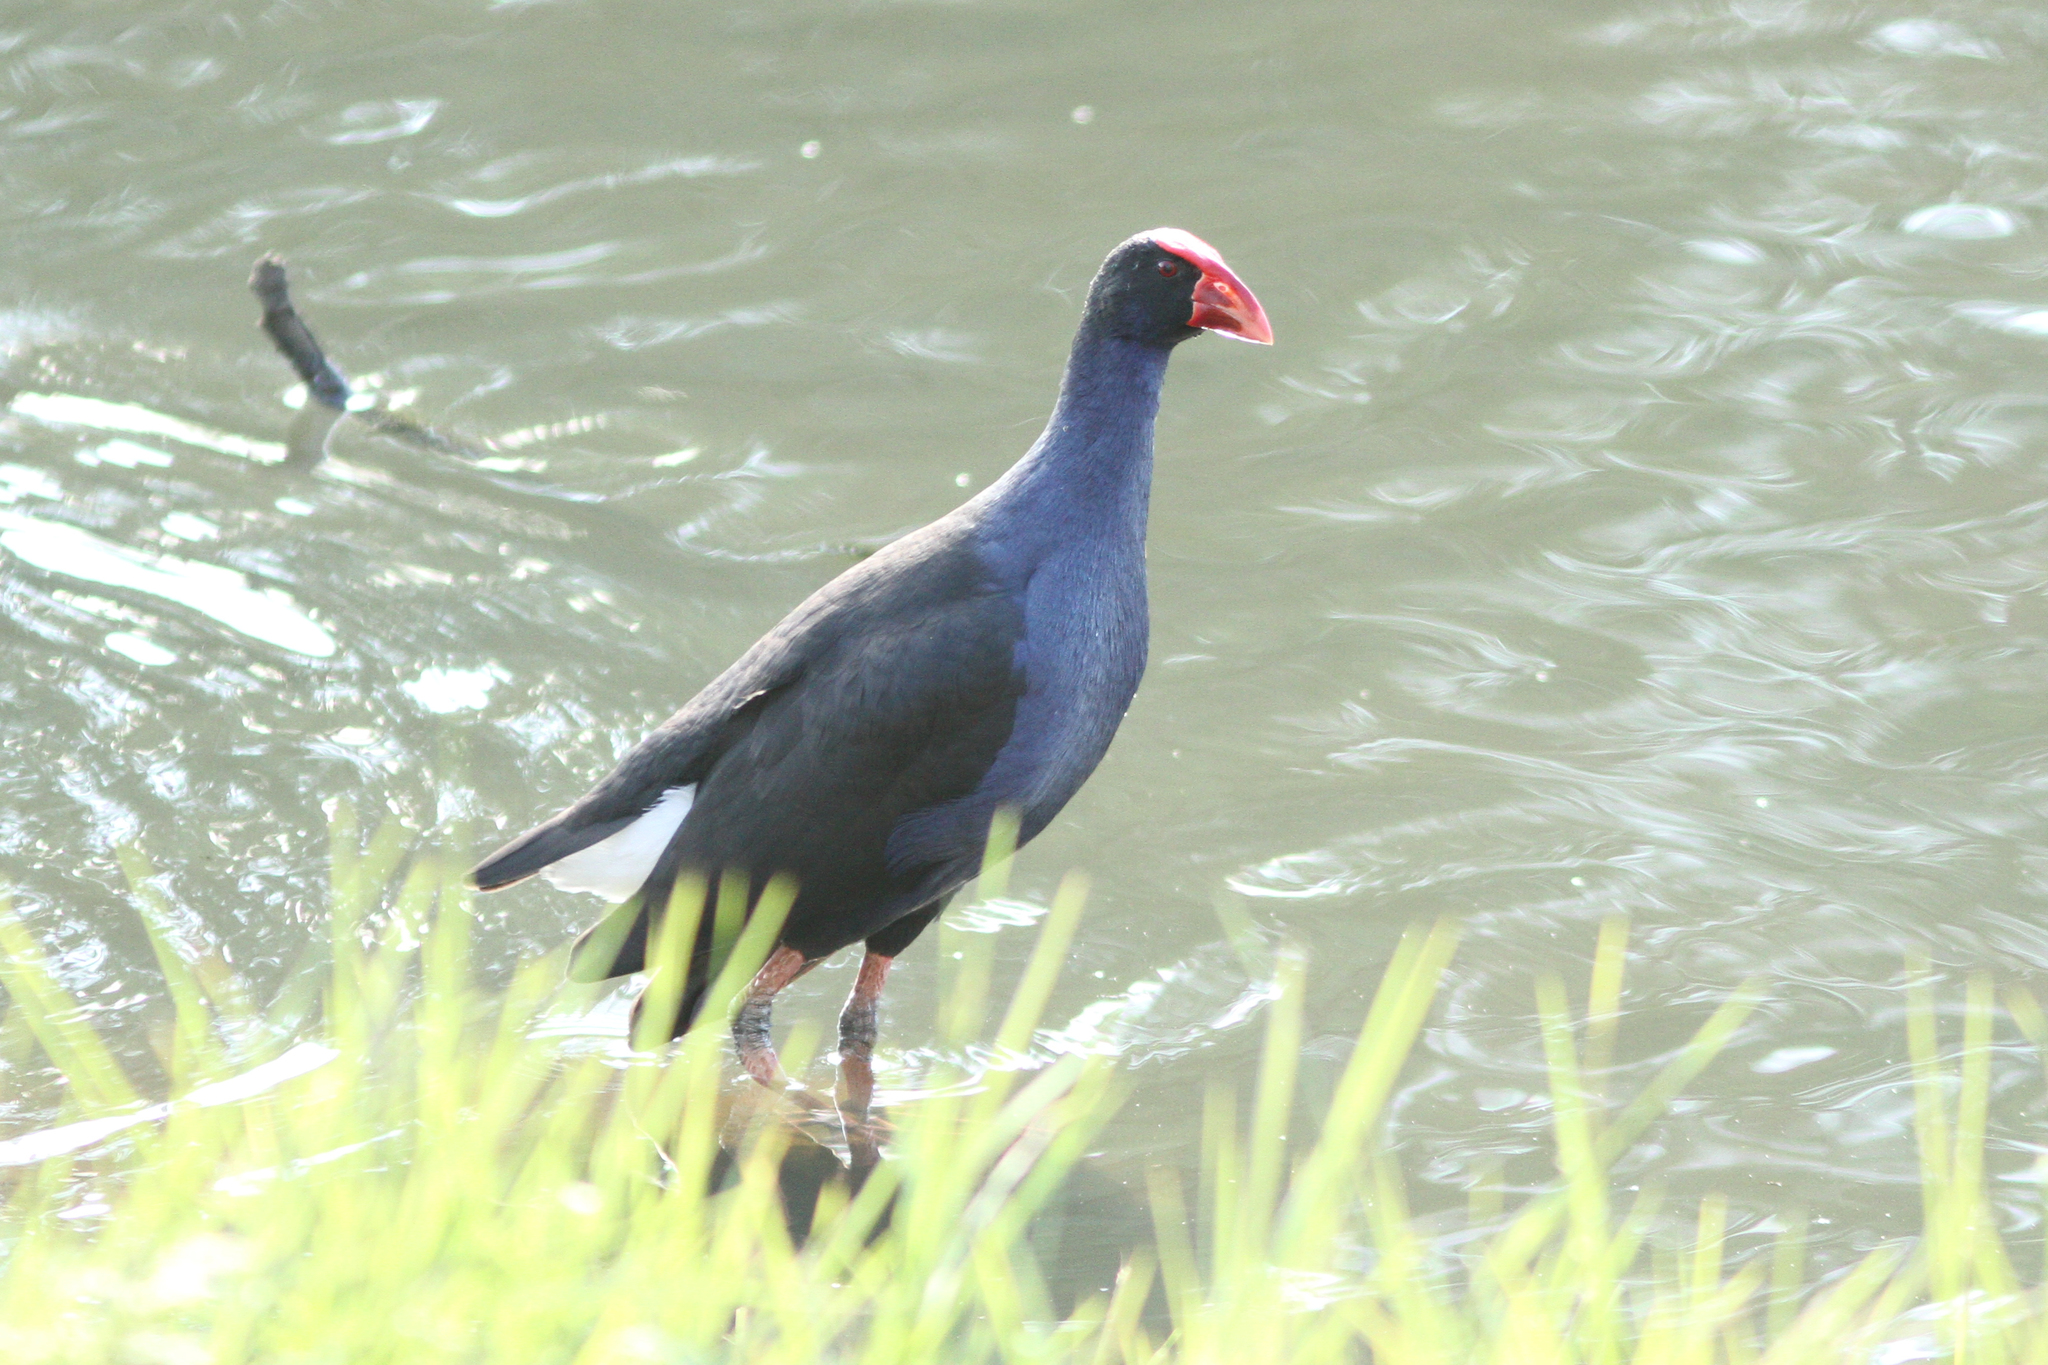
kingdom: Animalia
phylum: Chordata
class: Aves
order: Gruiformes
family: Rallidae
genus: Porphyrio
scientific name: Porphyrio melanotus
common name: Australasian swamphen
